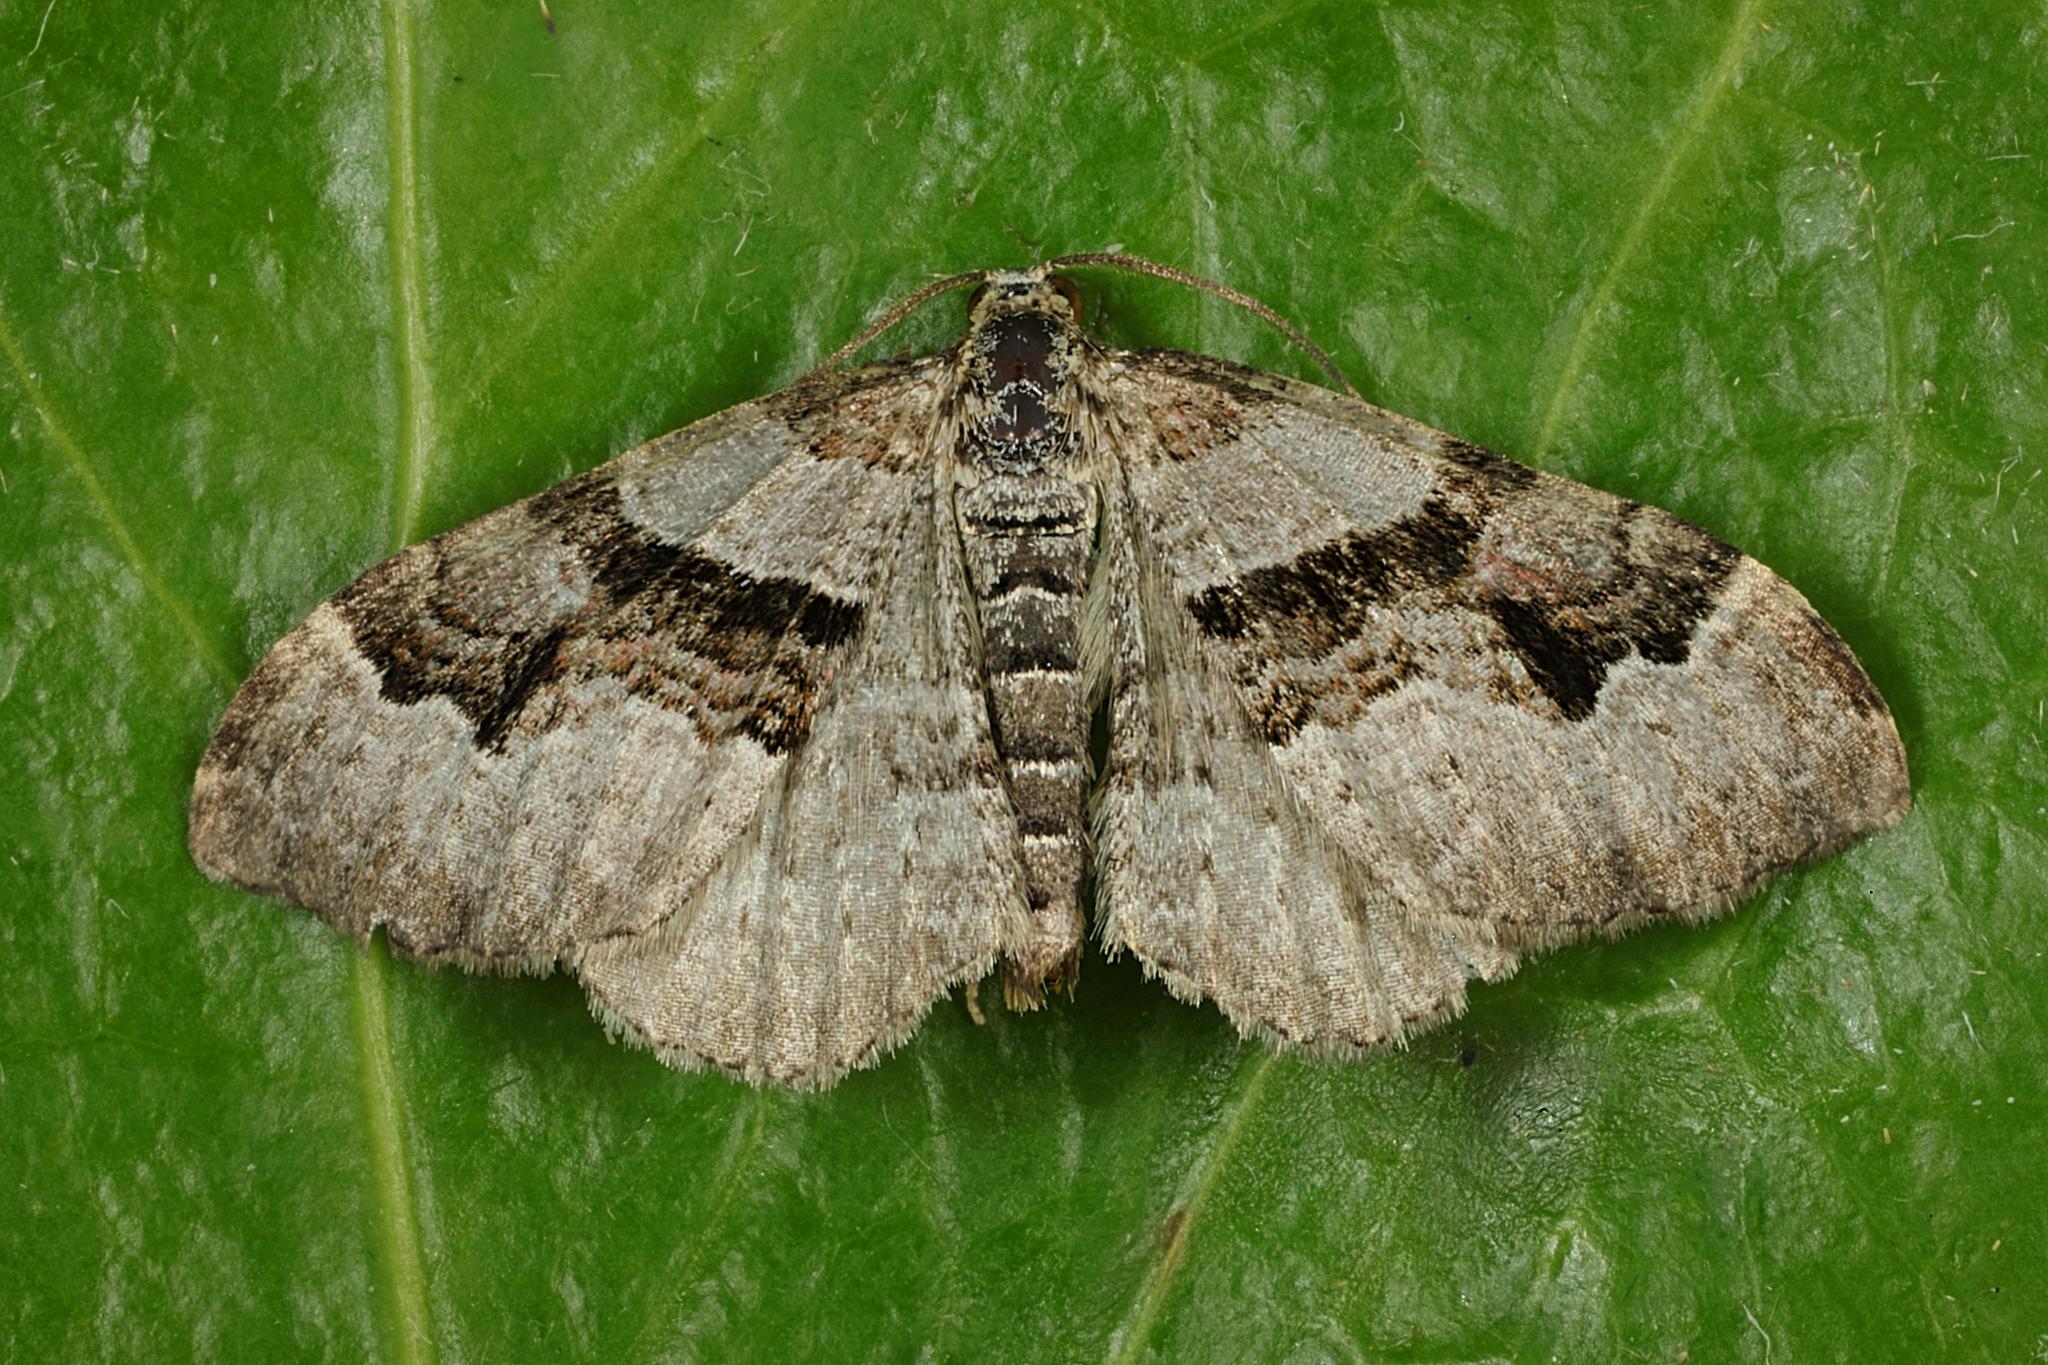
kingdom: Animalia
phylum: Arthropoda
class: Insecta
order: Lepidoptera
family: Geometridae
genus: Xanthorhoe
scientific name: Xanthorhoe designata
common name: Flame carpet
